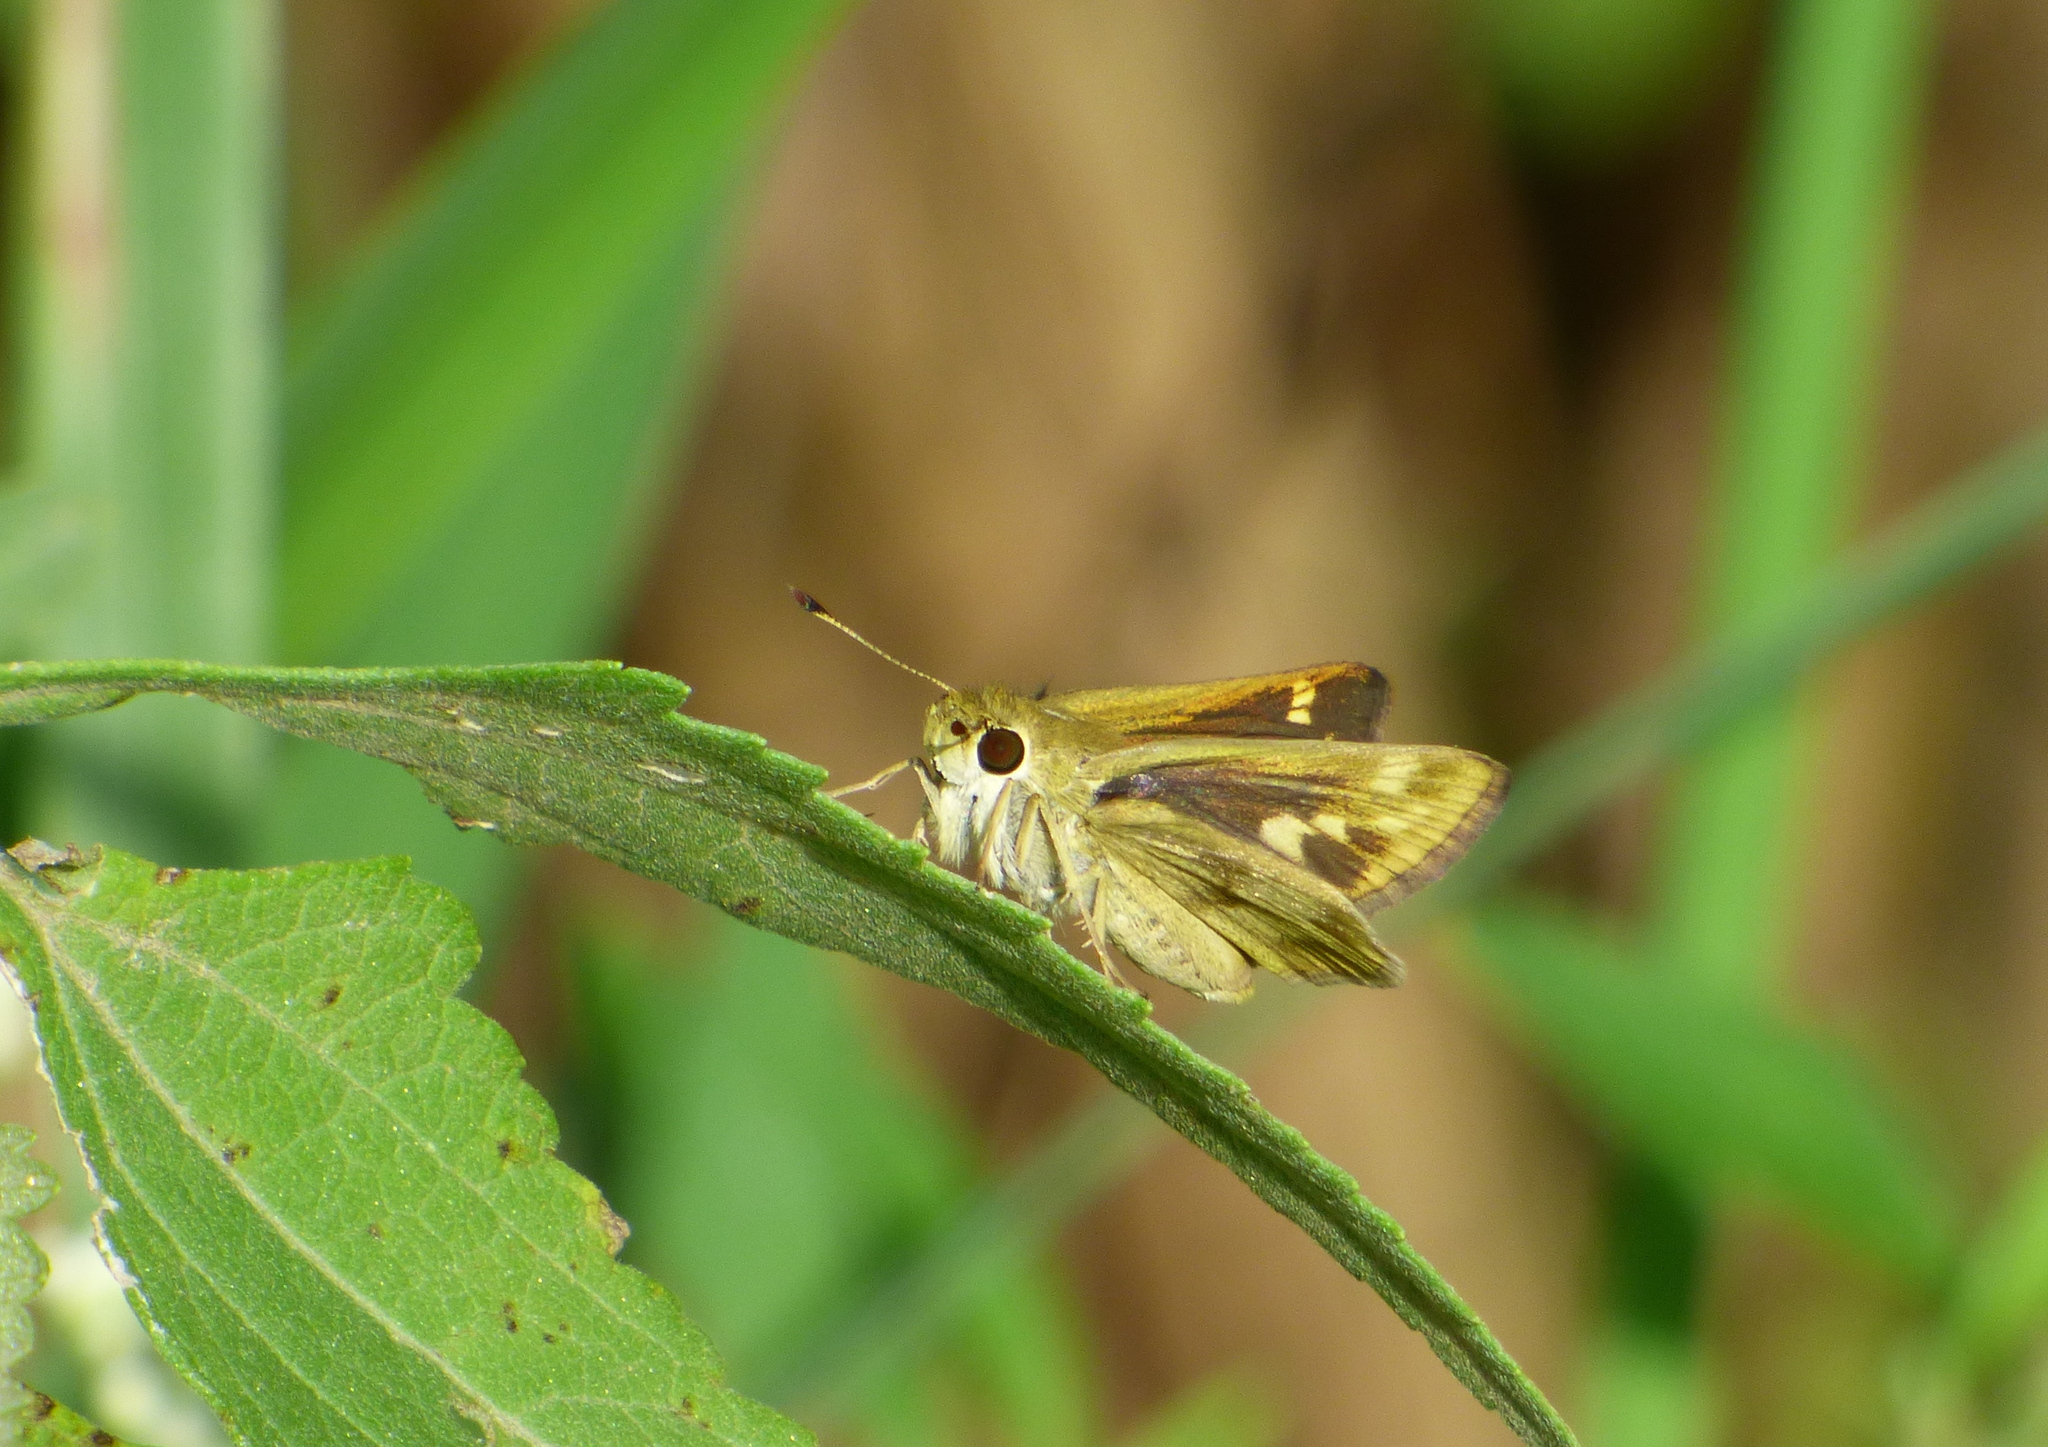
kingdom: Animalia
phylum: Arthropoda
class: Insecta
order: Lepidoptera
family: Hesperiidae
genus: Polites
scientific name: Polites vibex
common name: Whirlabout
